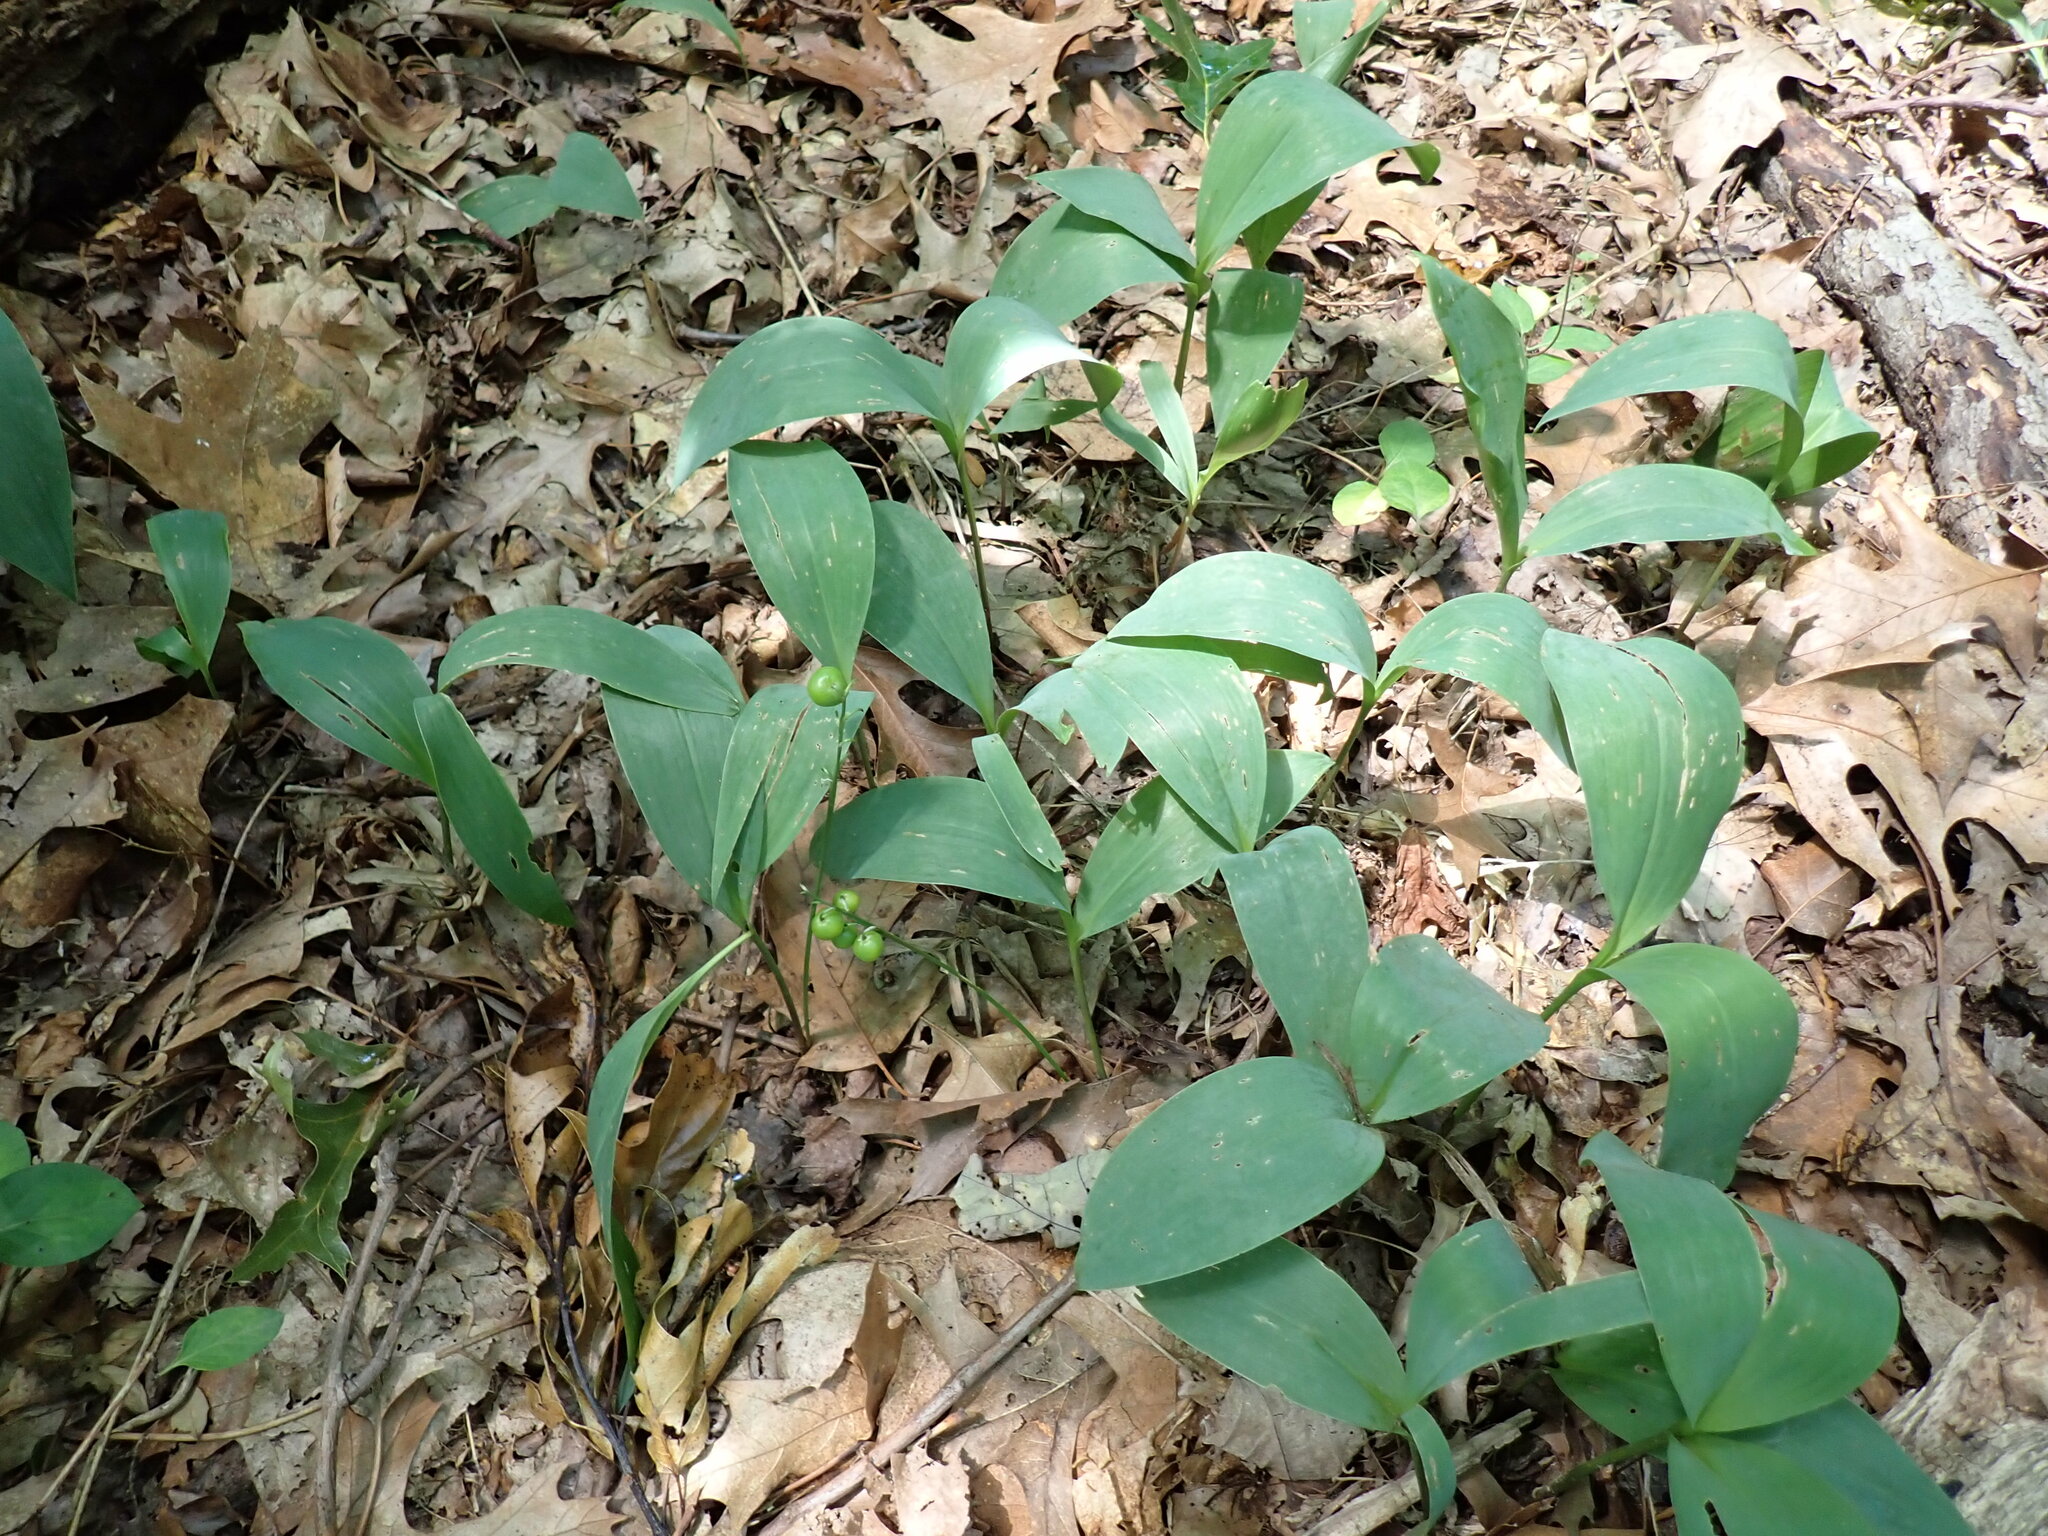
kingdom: Plantae
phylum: Tracheophyta
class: Liliopsida
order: Asparagales
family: Asparagaceae
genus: Convallaria
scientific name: Convallaria majalis
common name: Lily-of-the-valley
